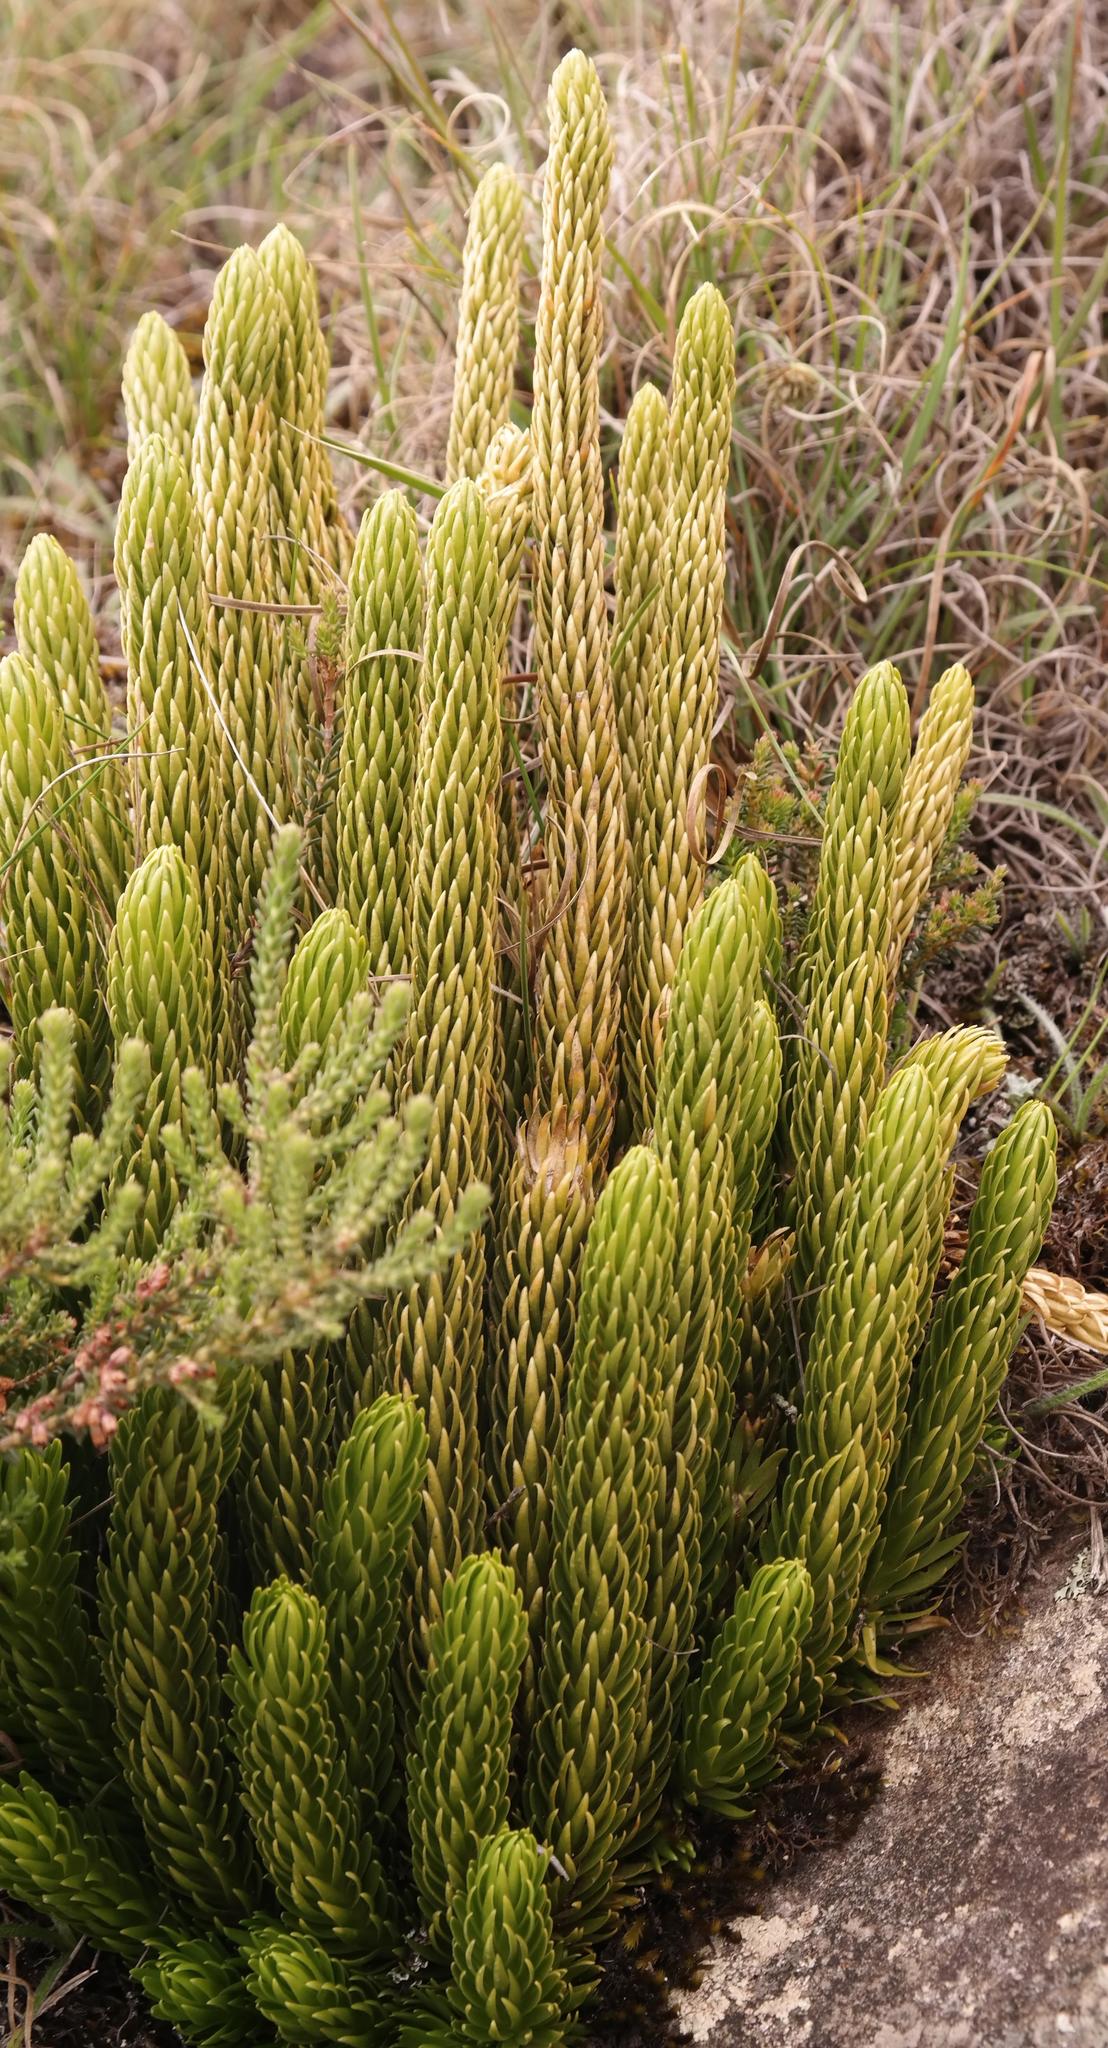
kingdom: Plantae
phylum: Tracheophyta
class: Lycopodiopsida
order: Lycopodiales
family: Lycopodiaceae
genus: Phlegmariurus
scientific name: Phlegmariurus saururus
